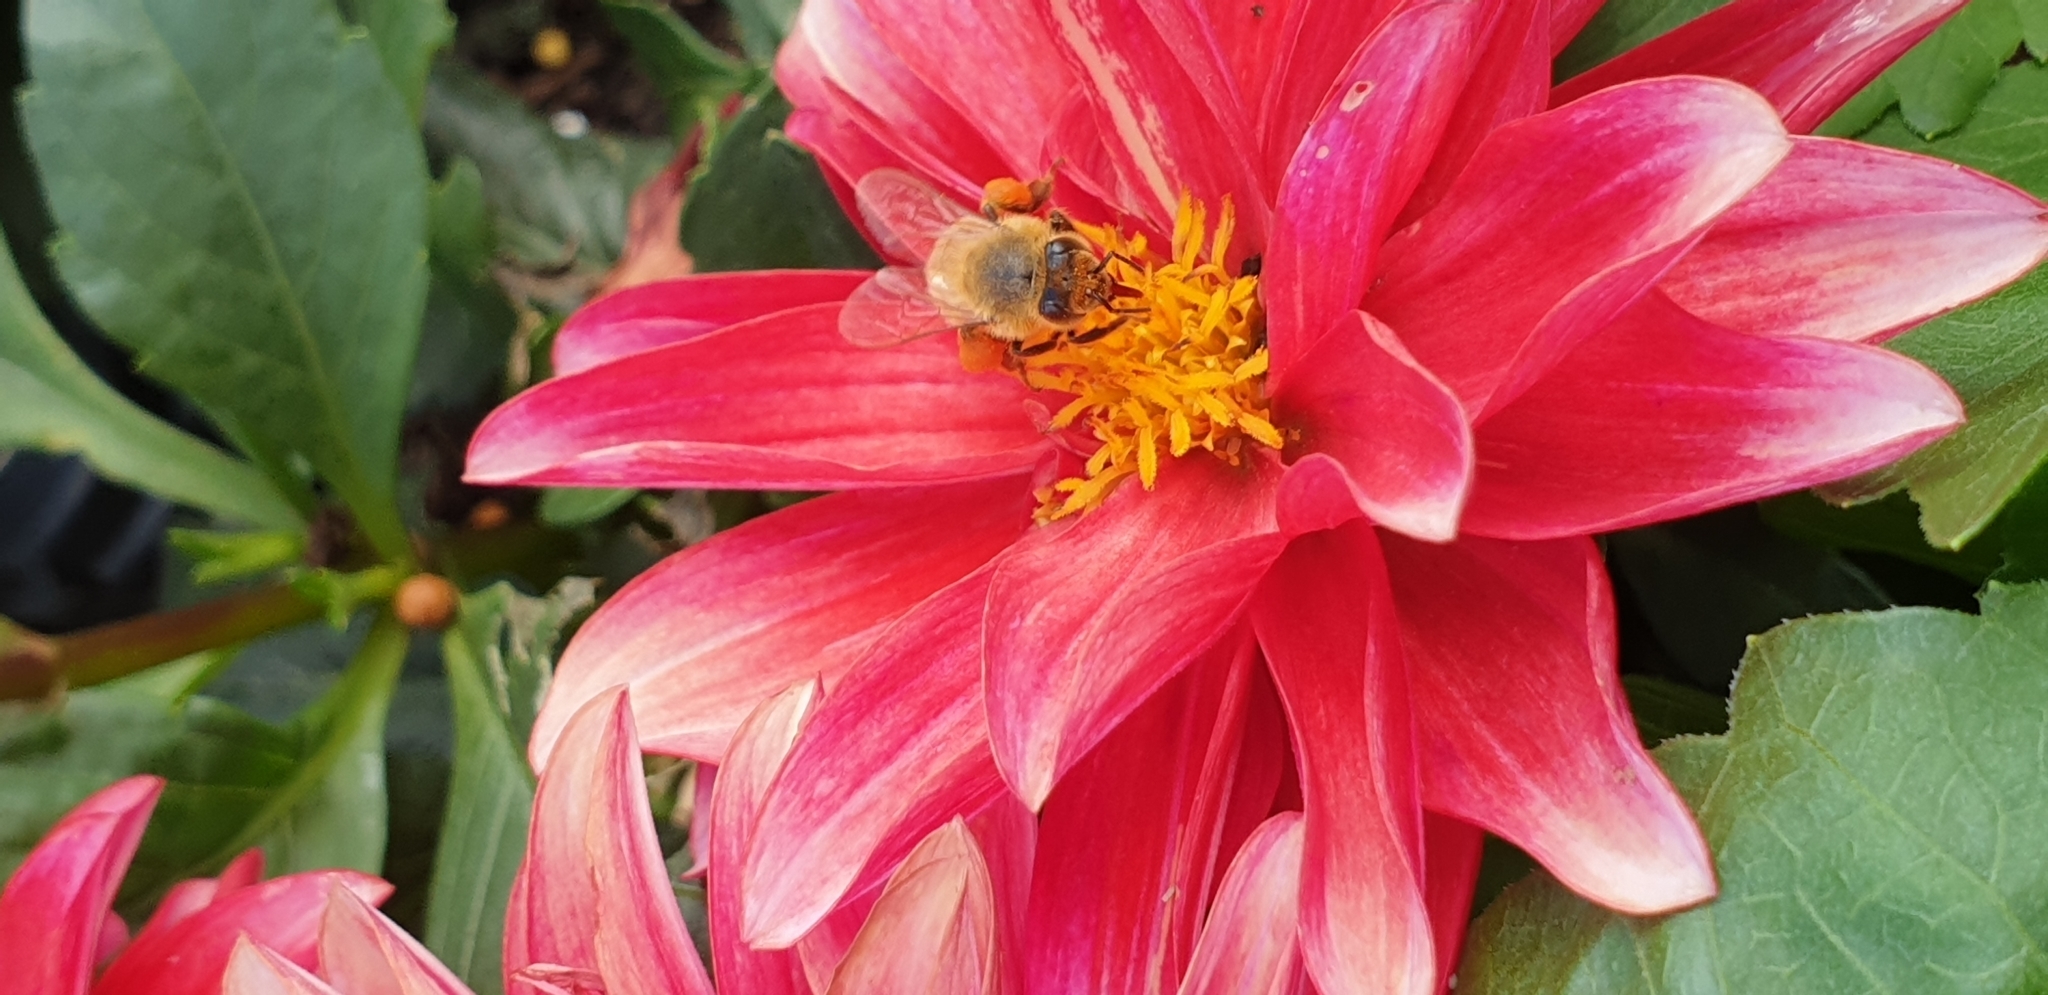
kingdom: Animalia
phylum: Arthropoda
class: Insecta
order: Hymenoptera
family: Apidae
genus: Apis
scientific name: Apis mellifera
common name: Honey bee
